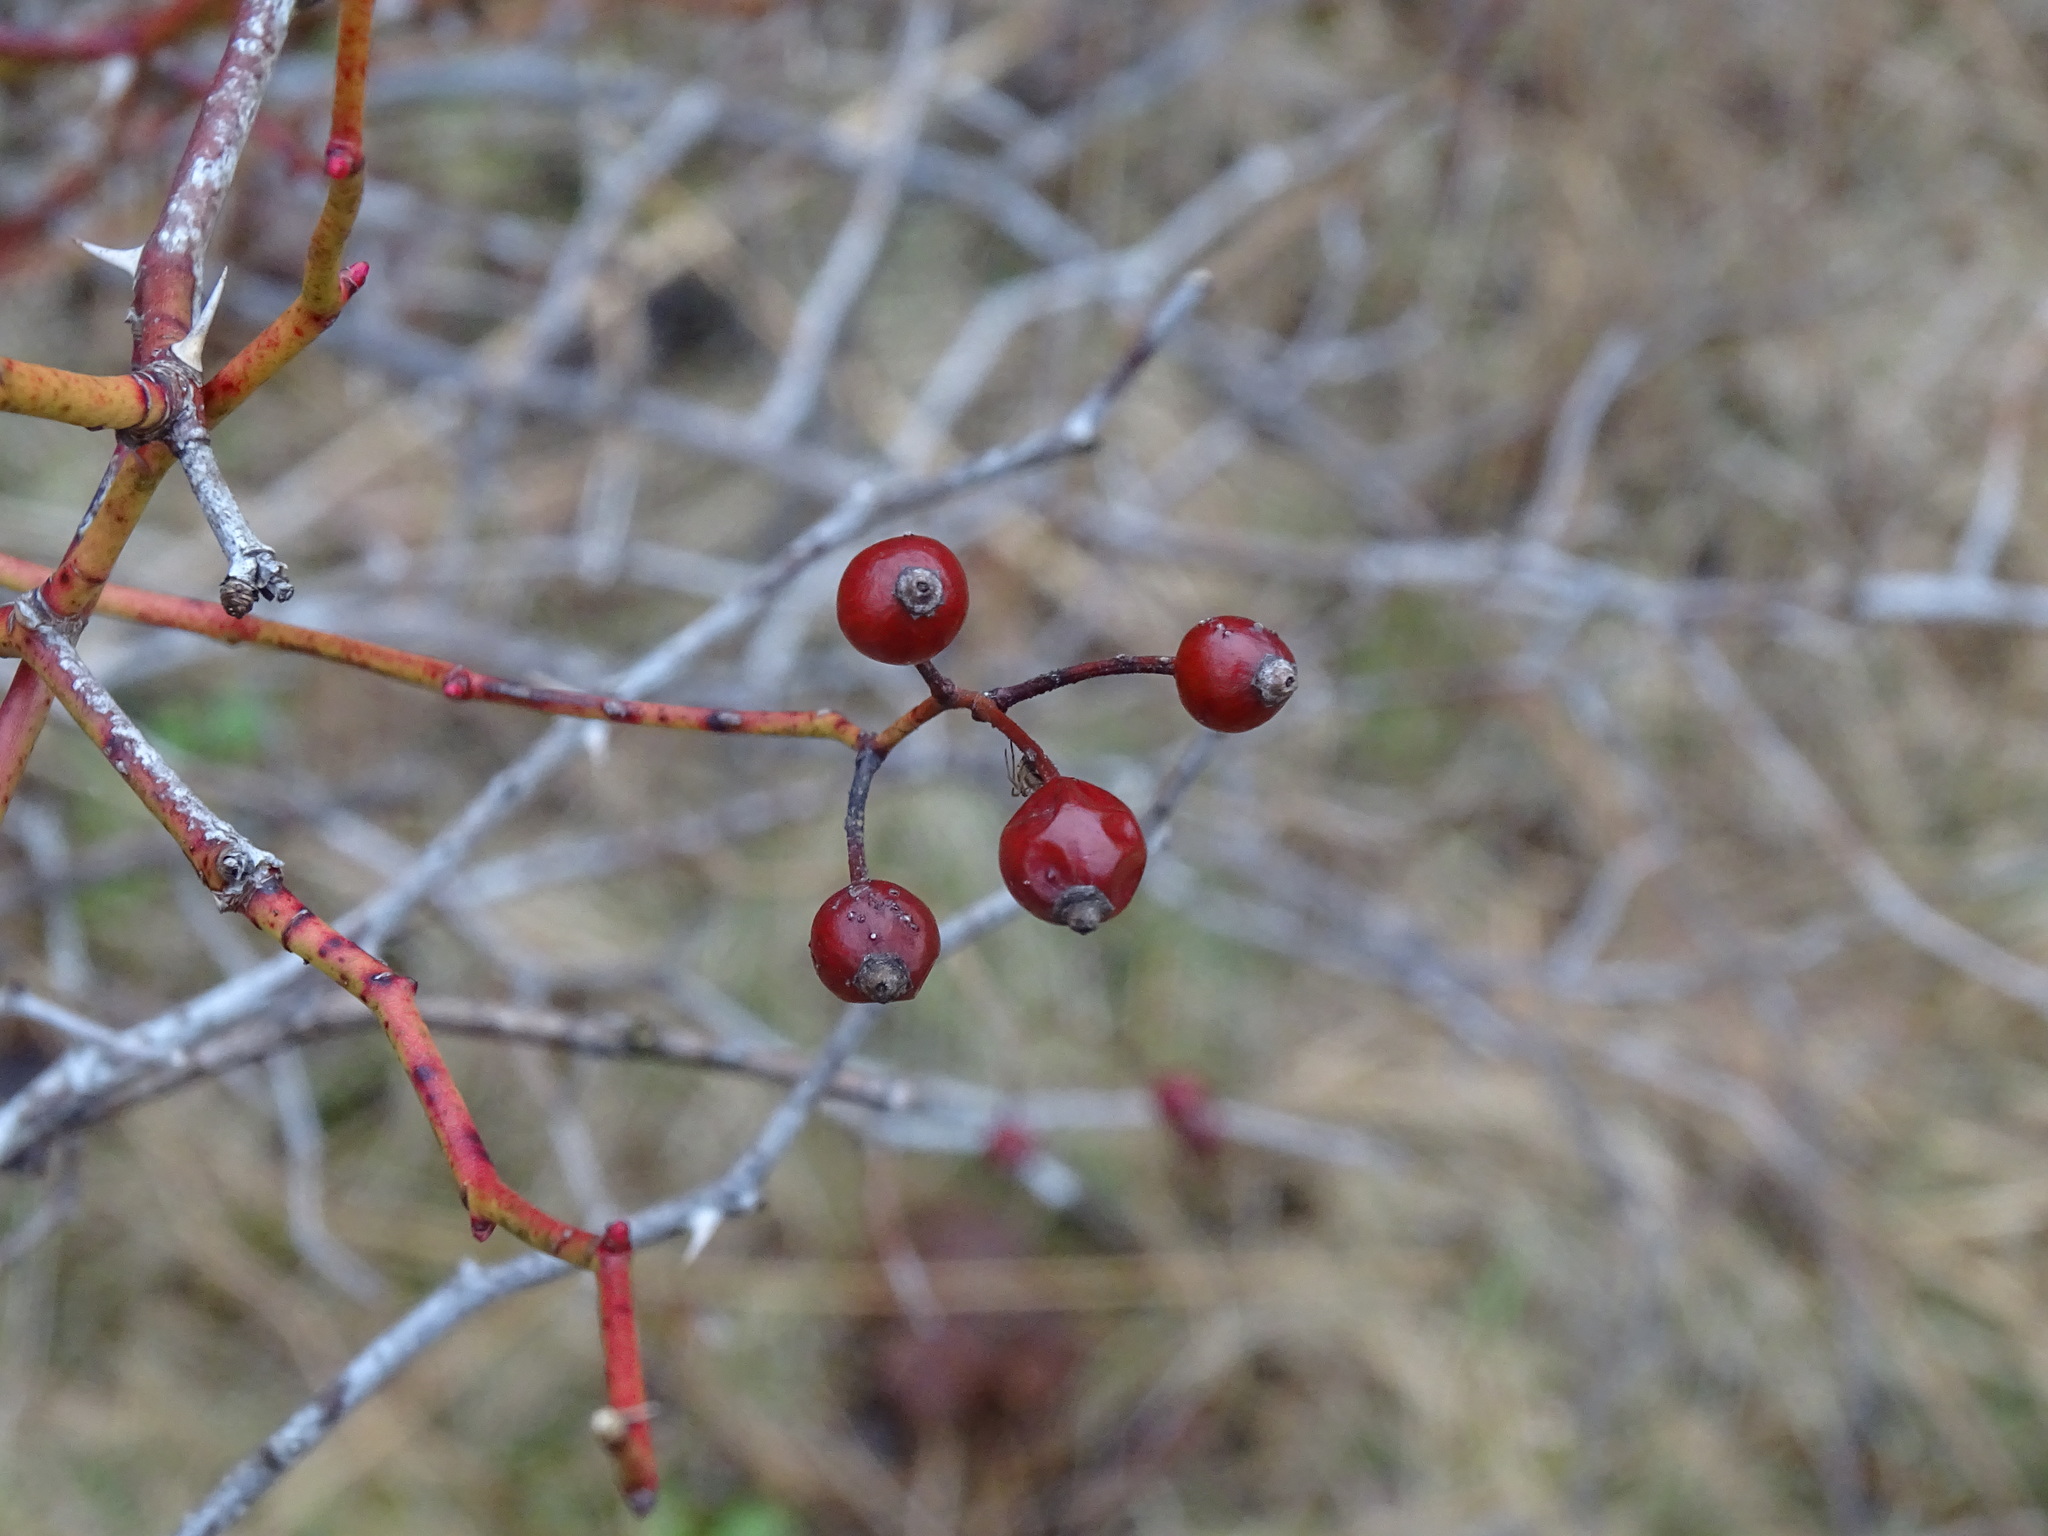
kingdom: Plantae
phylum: Tracheophyta
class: Magnoliopsida
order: Rosales
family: Rosaceae
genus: Rosa
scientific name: Rosa multiflora
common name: Multiflora rose
